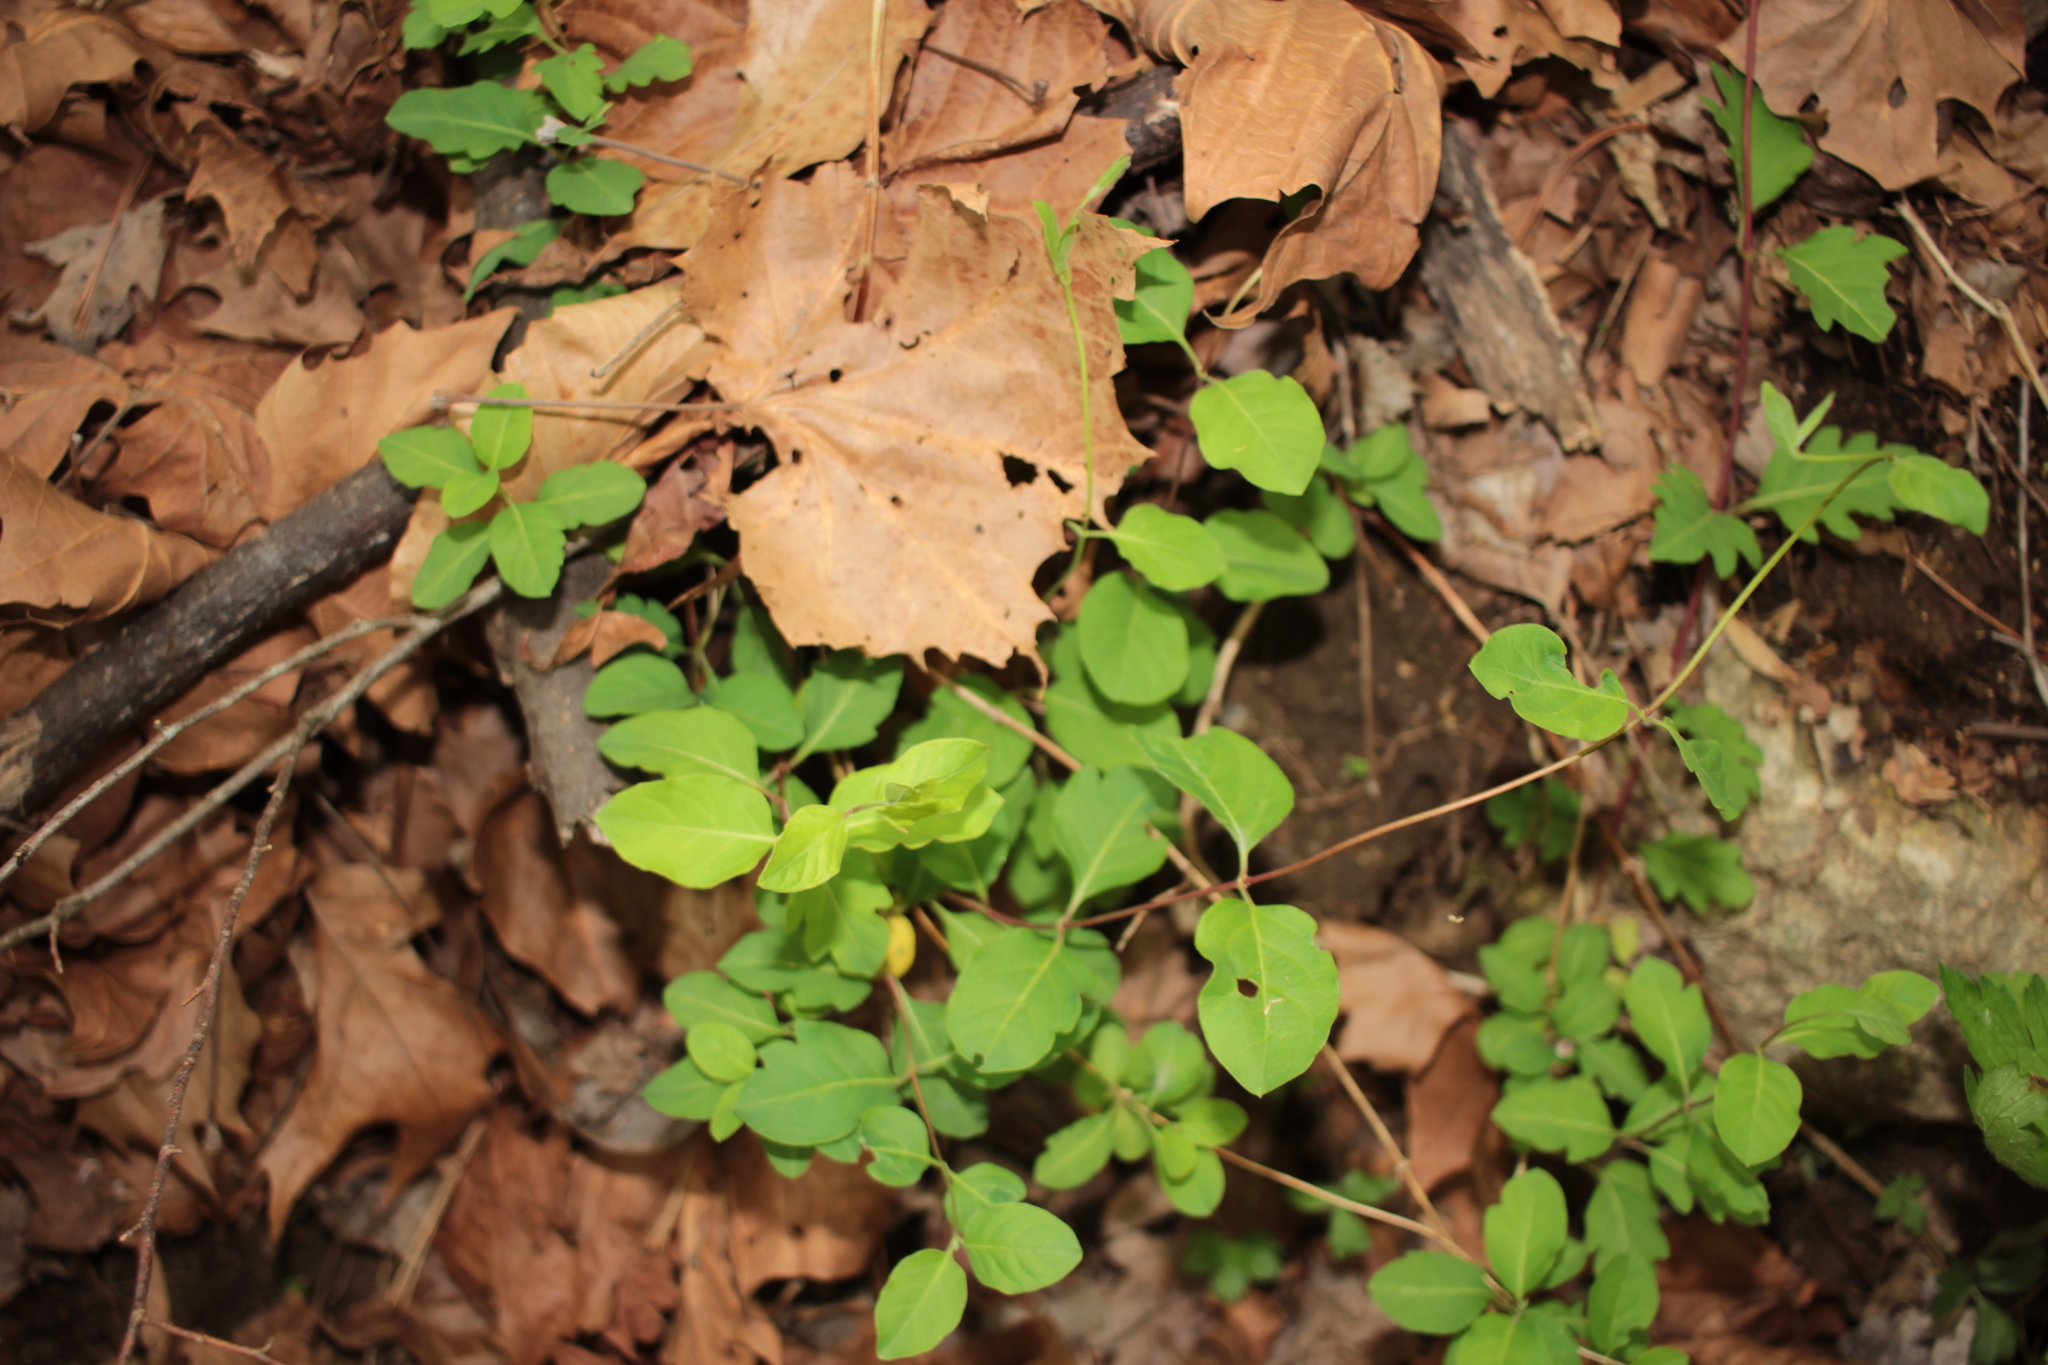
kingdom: Plantae
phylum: Tracheophyta
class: Magnoliopsida
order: Dipsacales
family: Caprifoliaceae
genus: Lonicera
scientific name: Lonicera japonica
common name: Japanese honeysuckle
